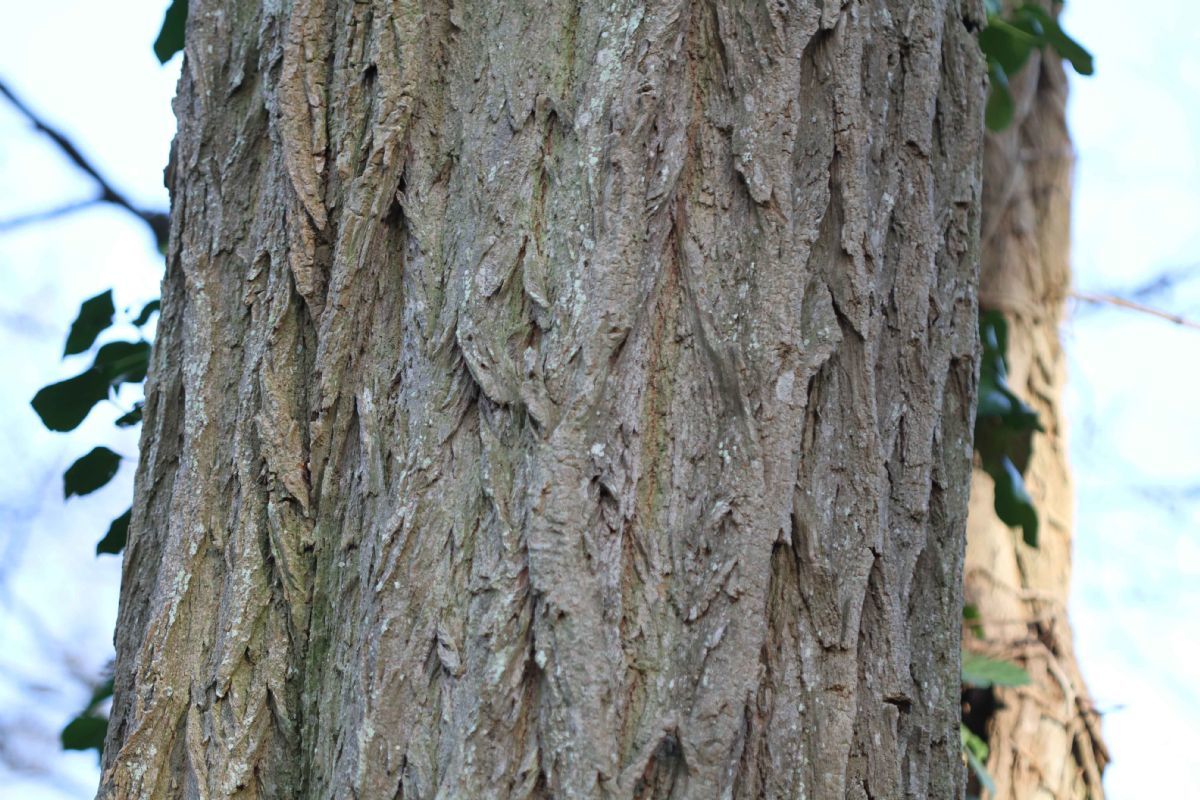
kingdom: Plantae
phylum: Tracheophyta
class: Magnoliopsida
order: Fabales
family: Fabaceae
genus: Robinia
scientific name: Robinia pseudoacacia
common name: Black locust
